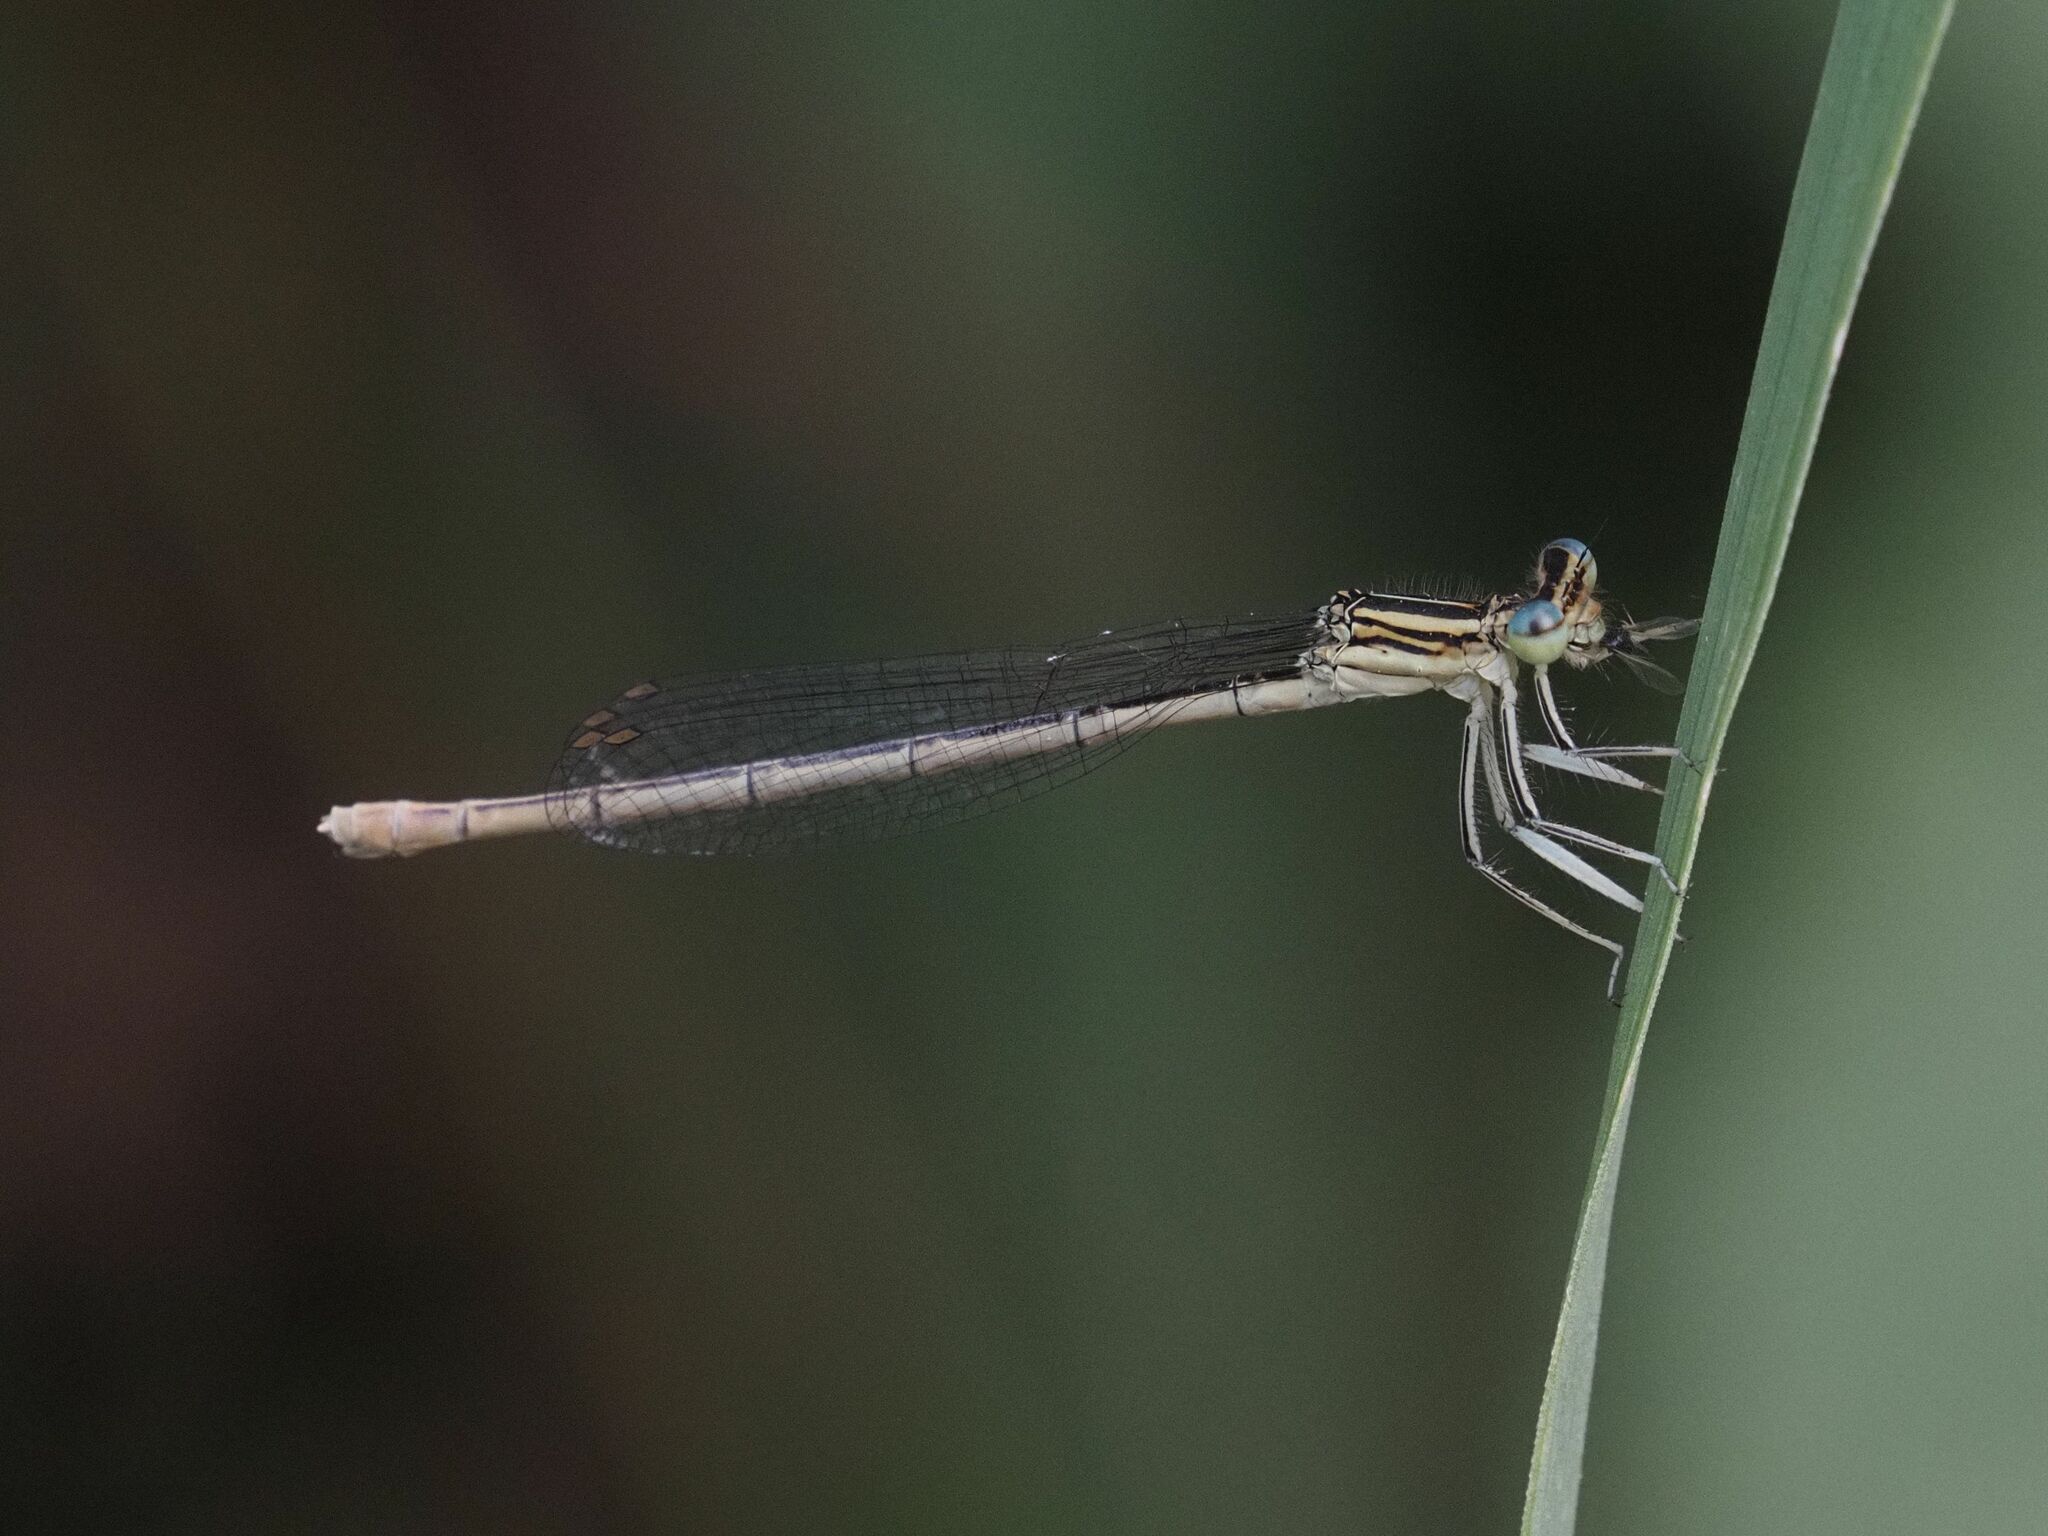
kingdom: Animalia
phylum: Arthropoda
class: Insecta
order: Odonata
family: Platycnemididae
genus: Platycnemis
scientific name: Platycnemis pennipes
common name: White-legged damselfly
